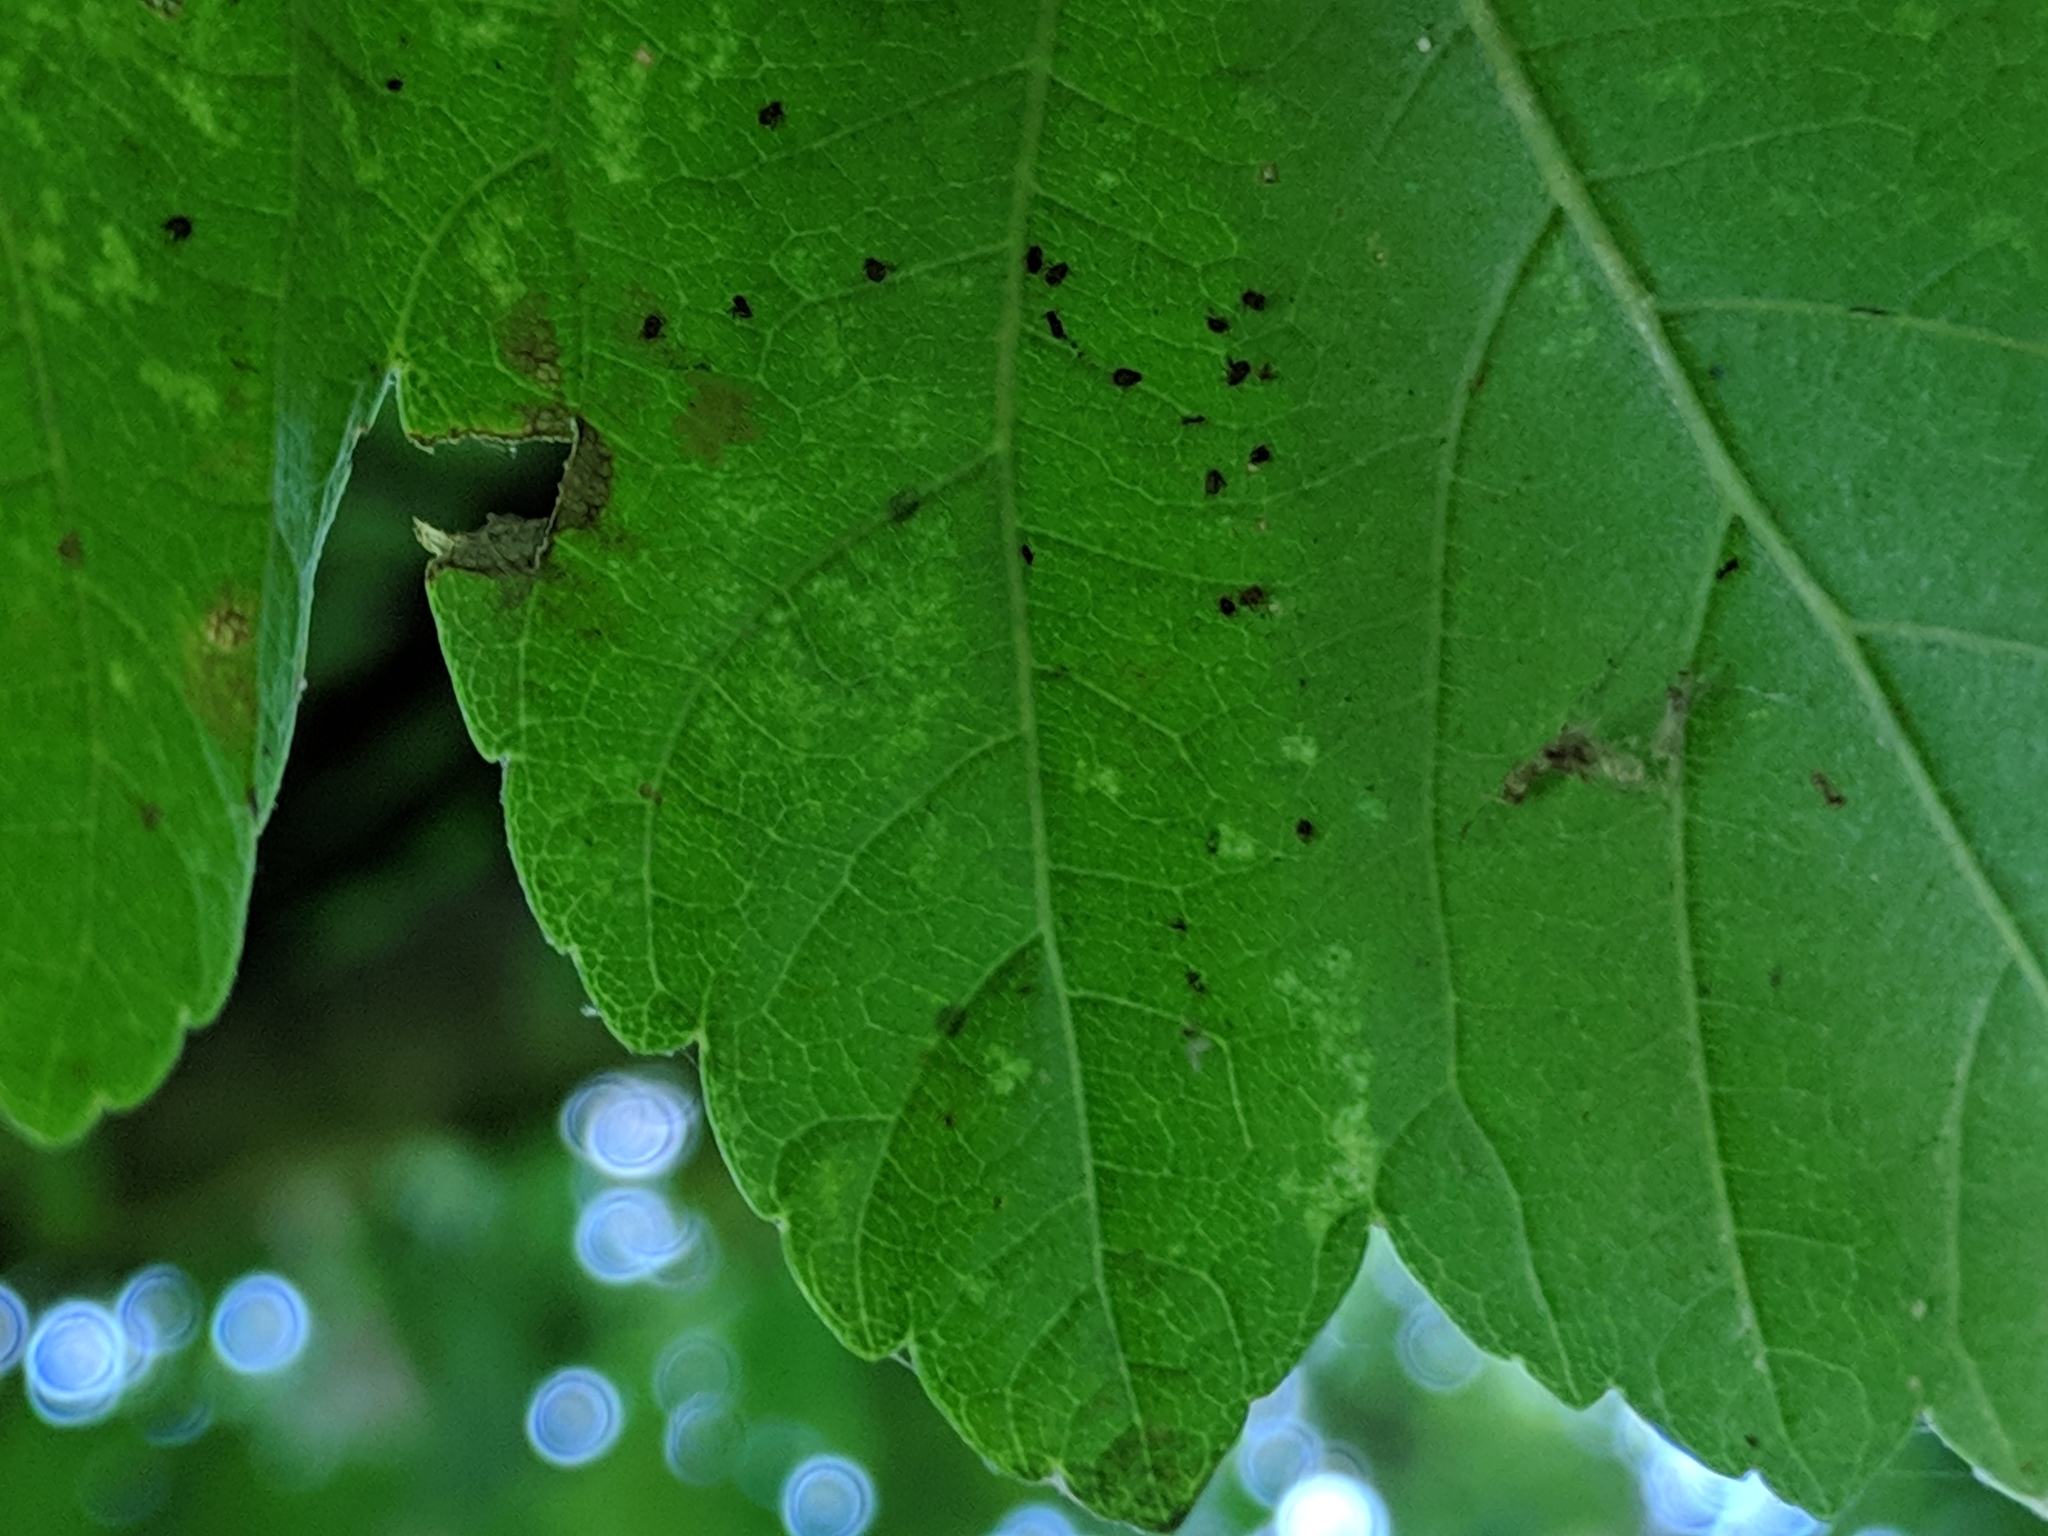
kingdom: Animalia
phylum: Arthropoda
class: Arachnida
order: Trombidiformes
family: Eriophyidae
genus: Aceria
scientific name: Aceria cephaloneus
